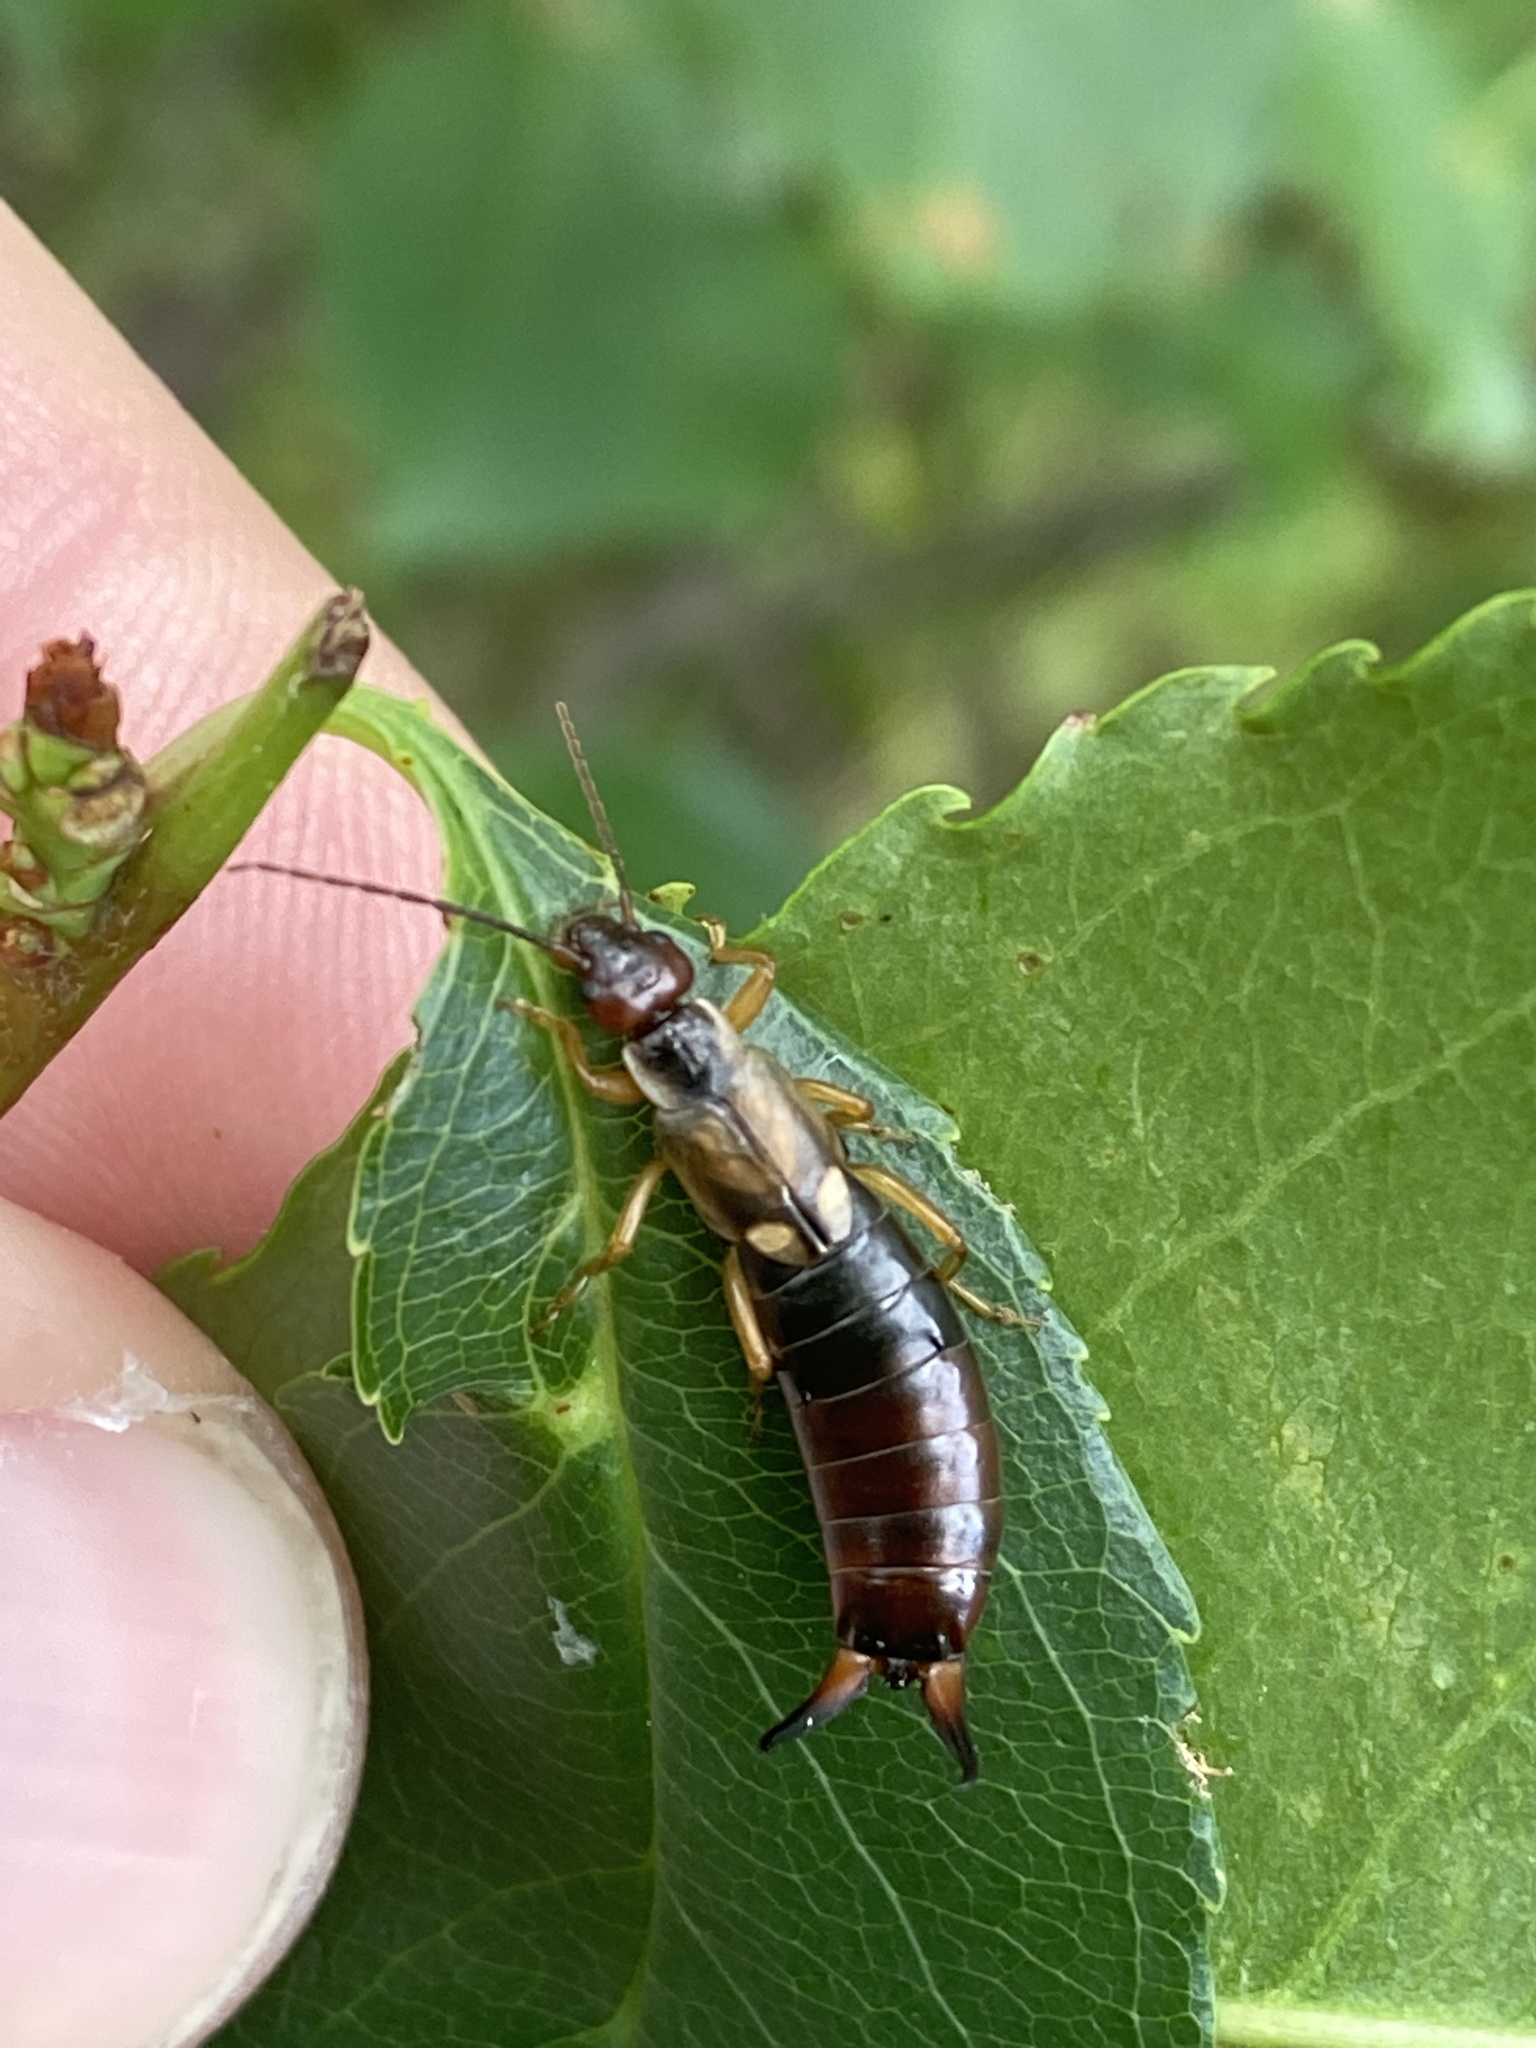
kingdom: Animalia
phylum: Arthropoda
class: Insecta
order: Dermaptera
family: Forficulidae
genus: Forficula
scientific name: Forficula
